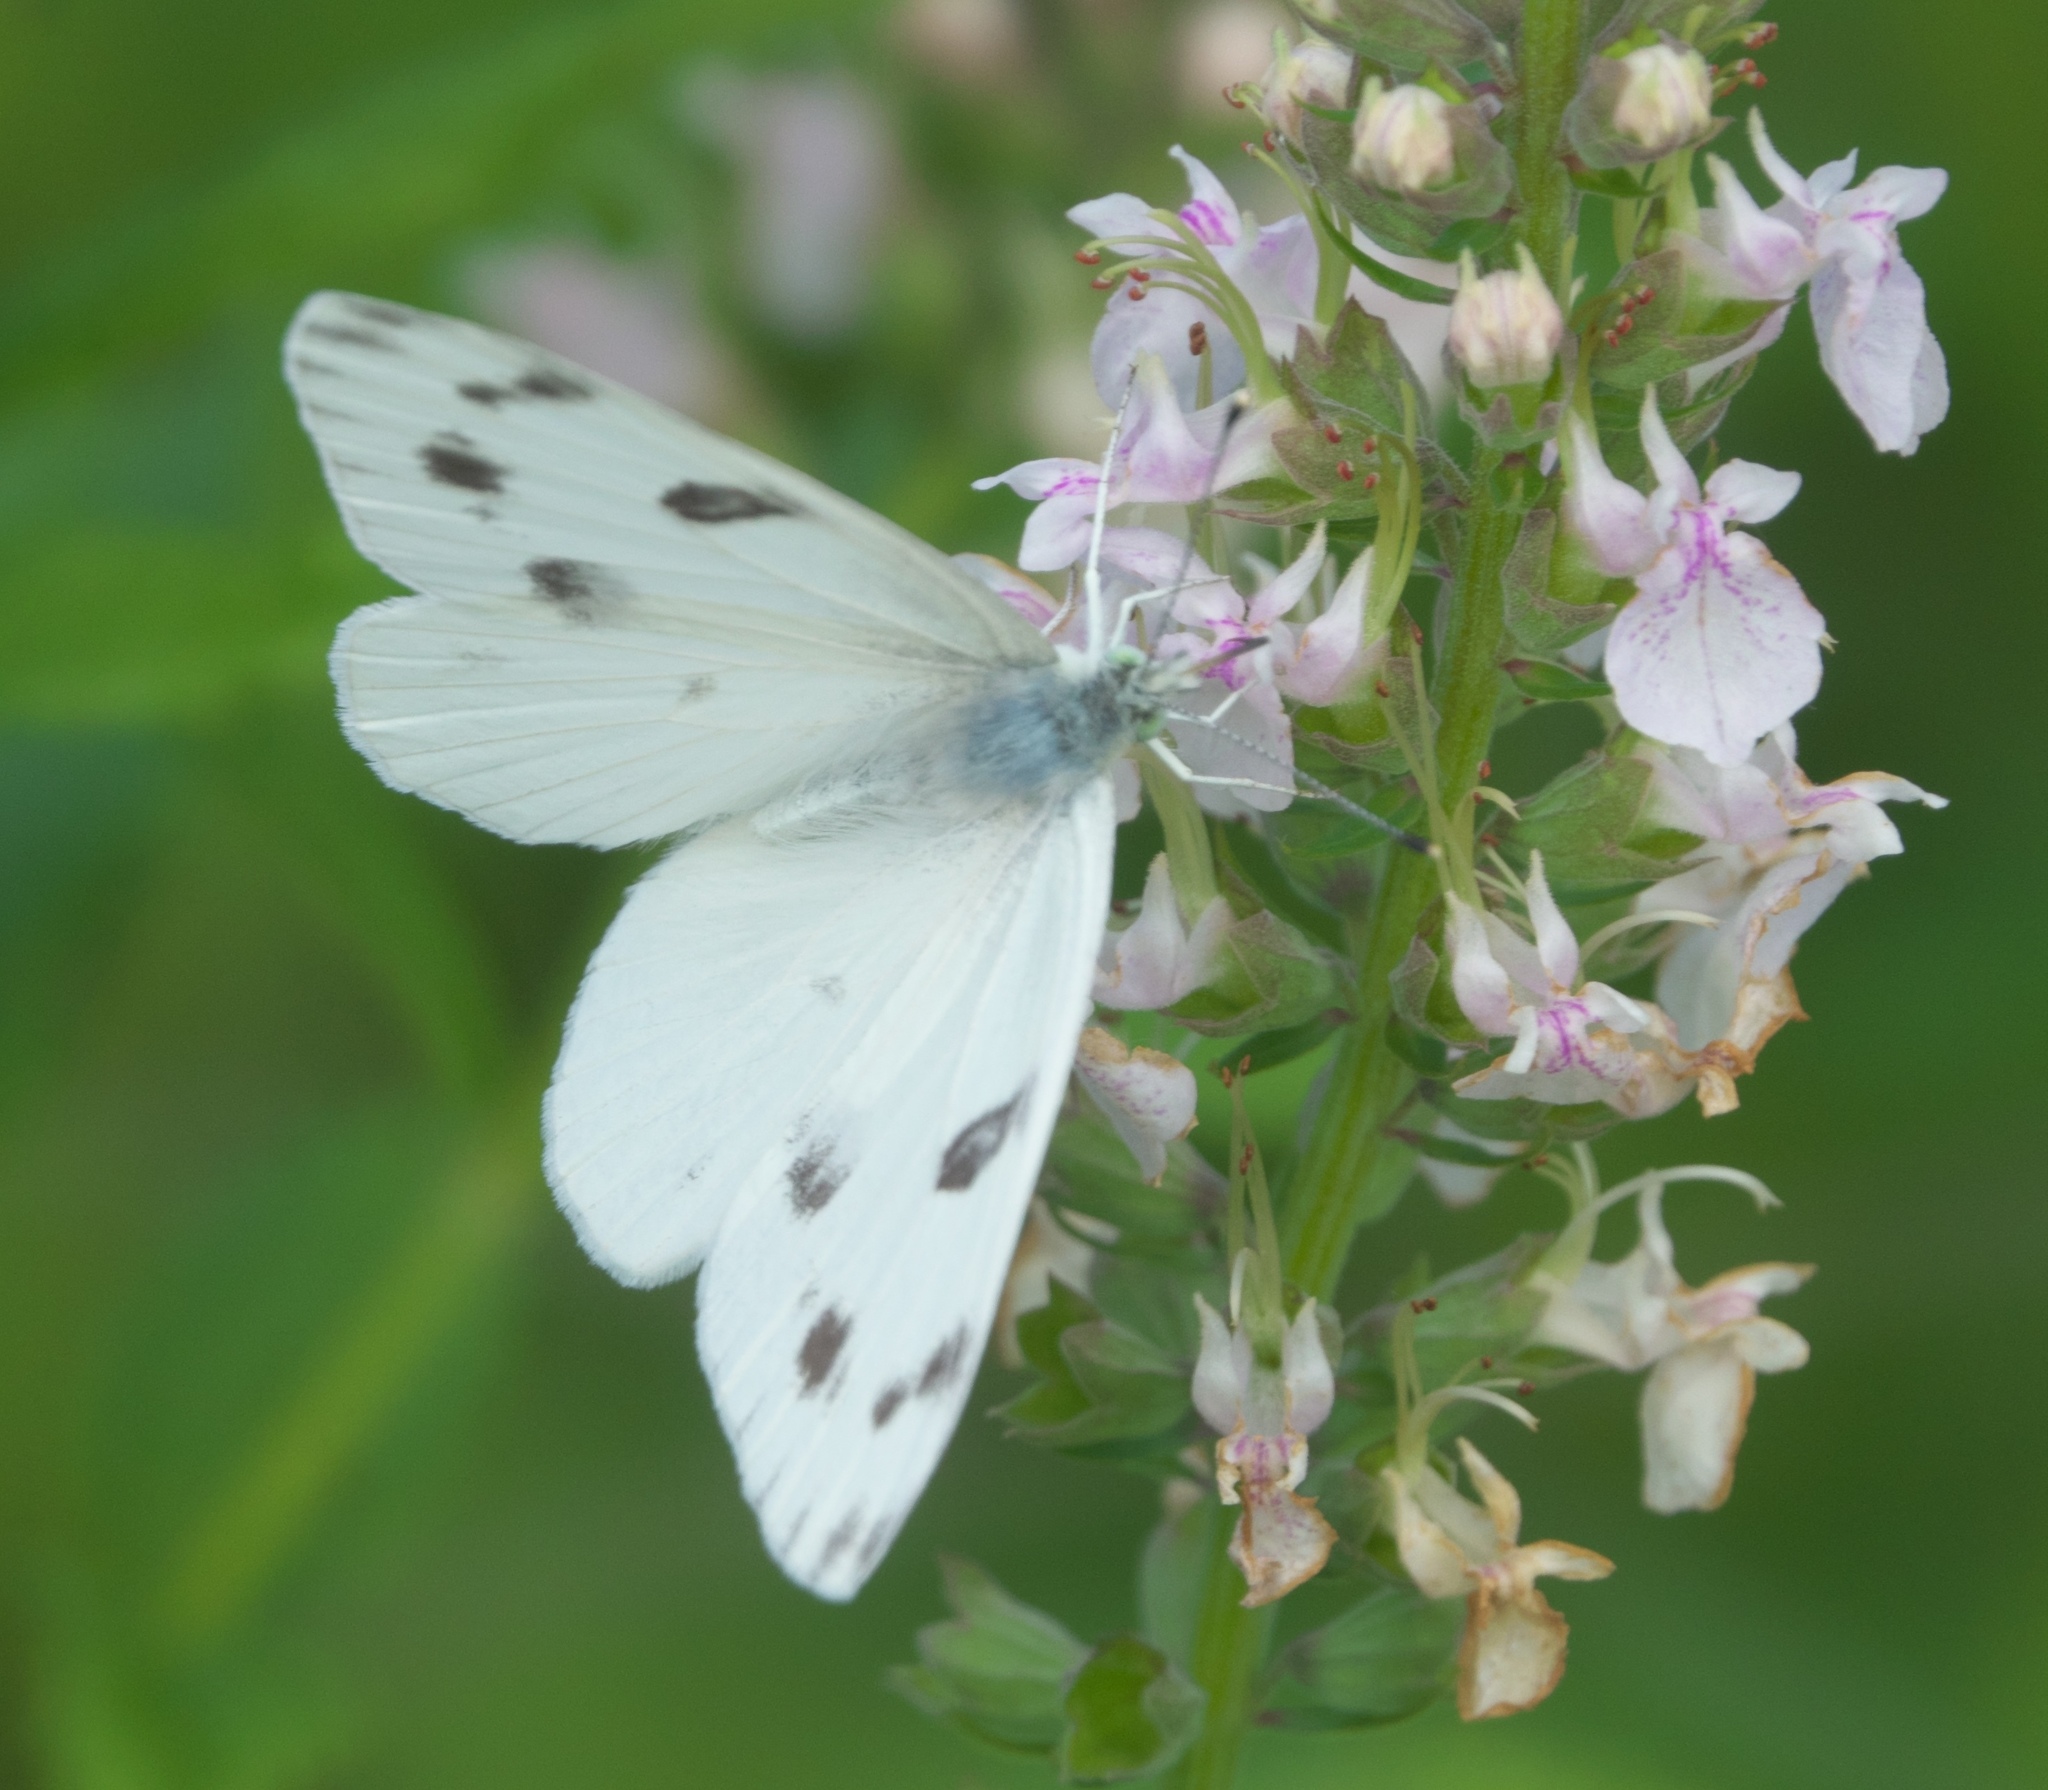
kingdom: Animalia
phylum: Arthropoda
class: Insecta
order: Lepidoptera
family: Pieridae
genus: Pontia
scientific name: Pontia protodice
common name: Checkered white
